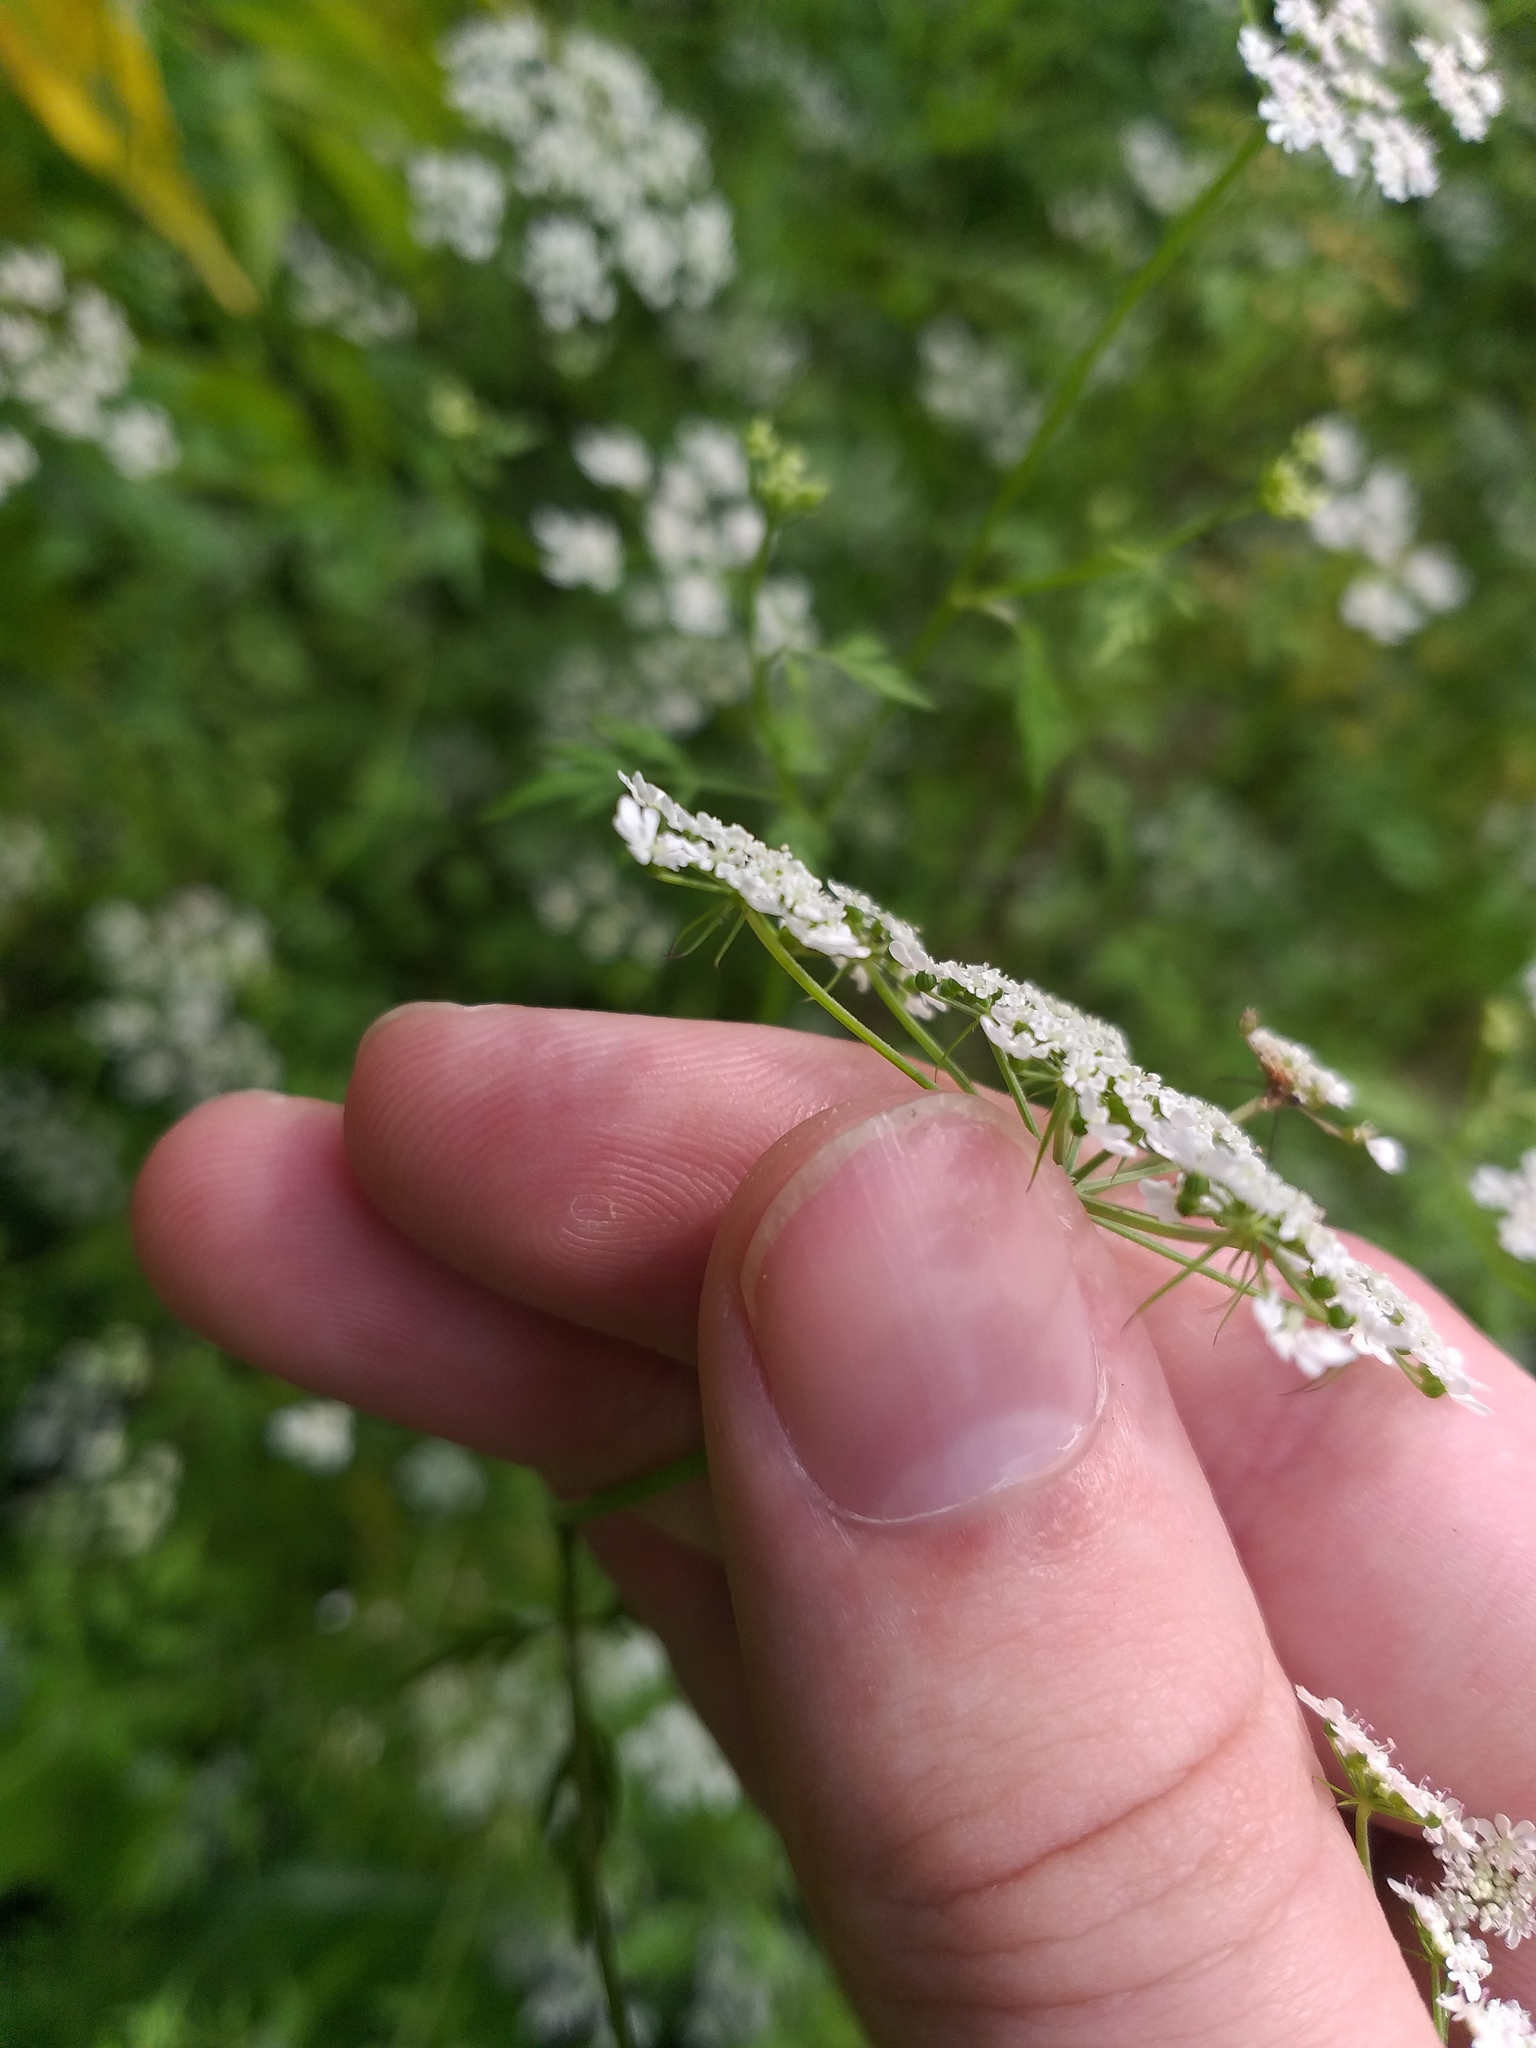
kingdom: Plantae
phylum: Tracheophyta
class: Magnoliopsida
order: Apiales
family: Apiaceae
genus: Aethusa
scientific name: Aethusa cynapium
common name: Fool's parsley
